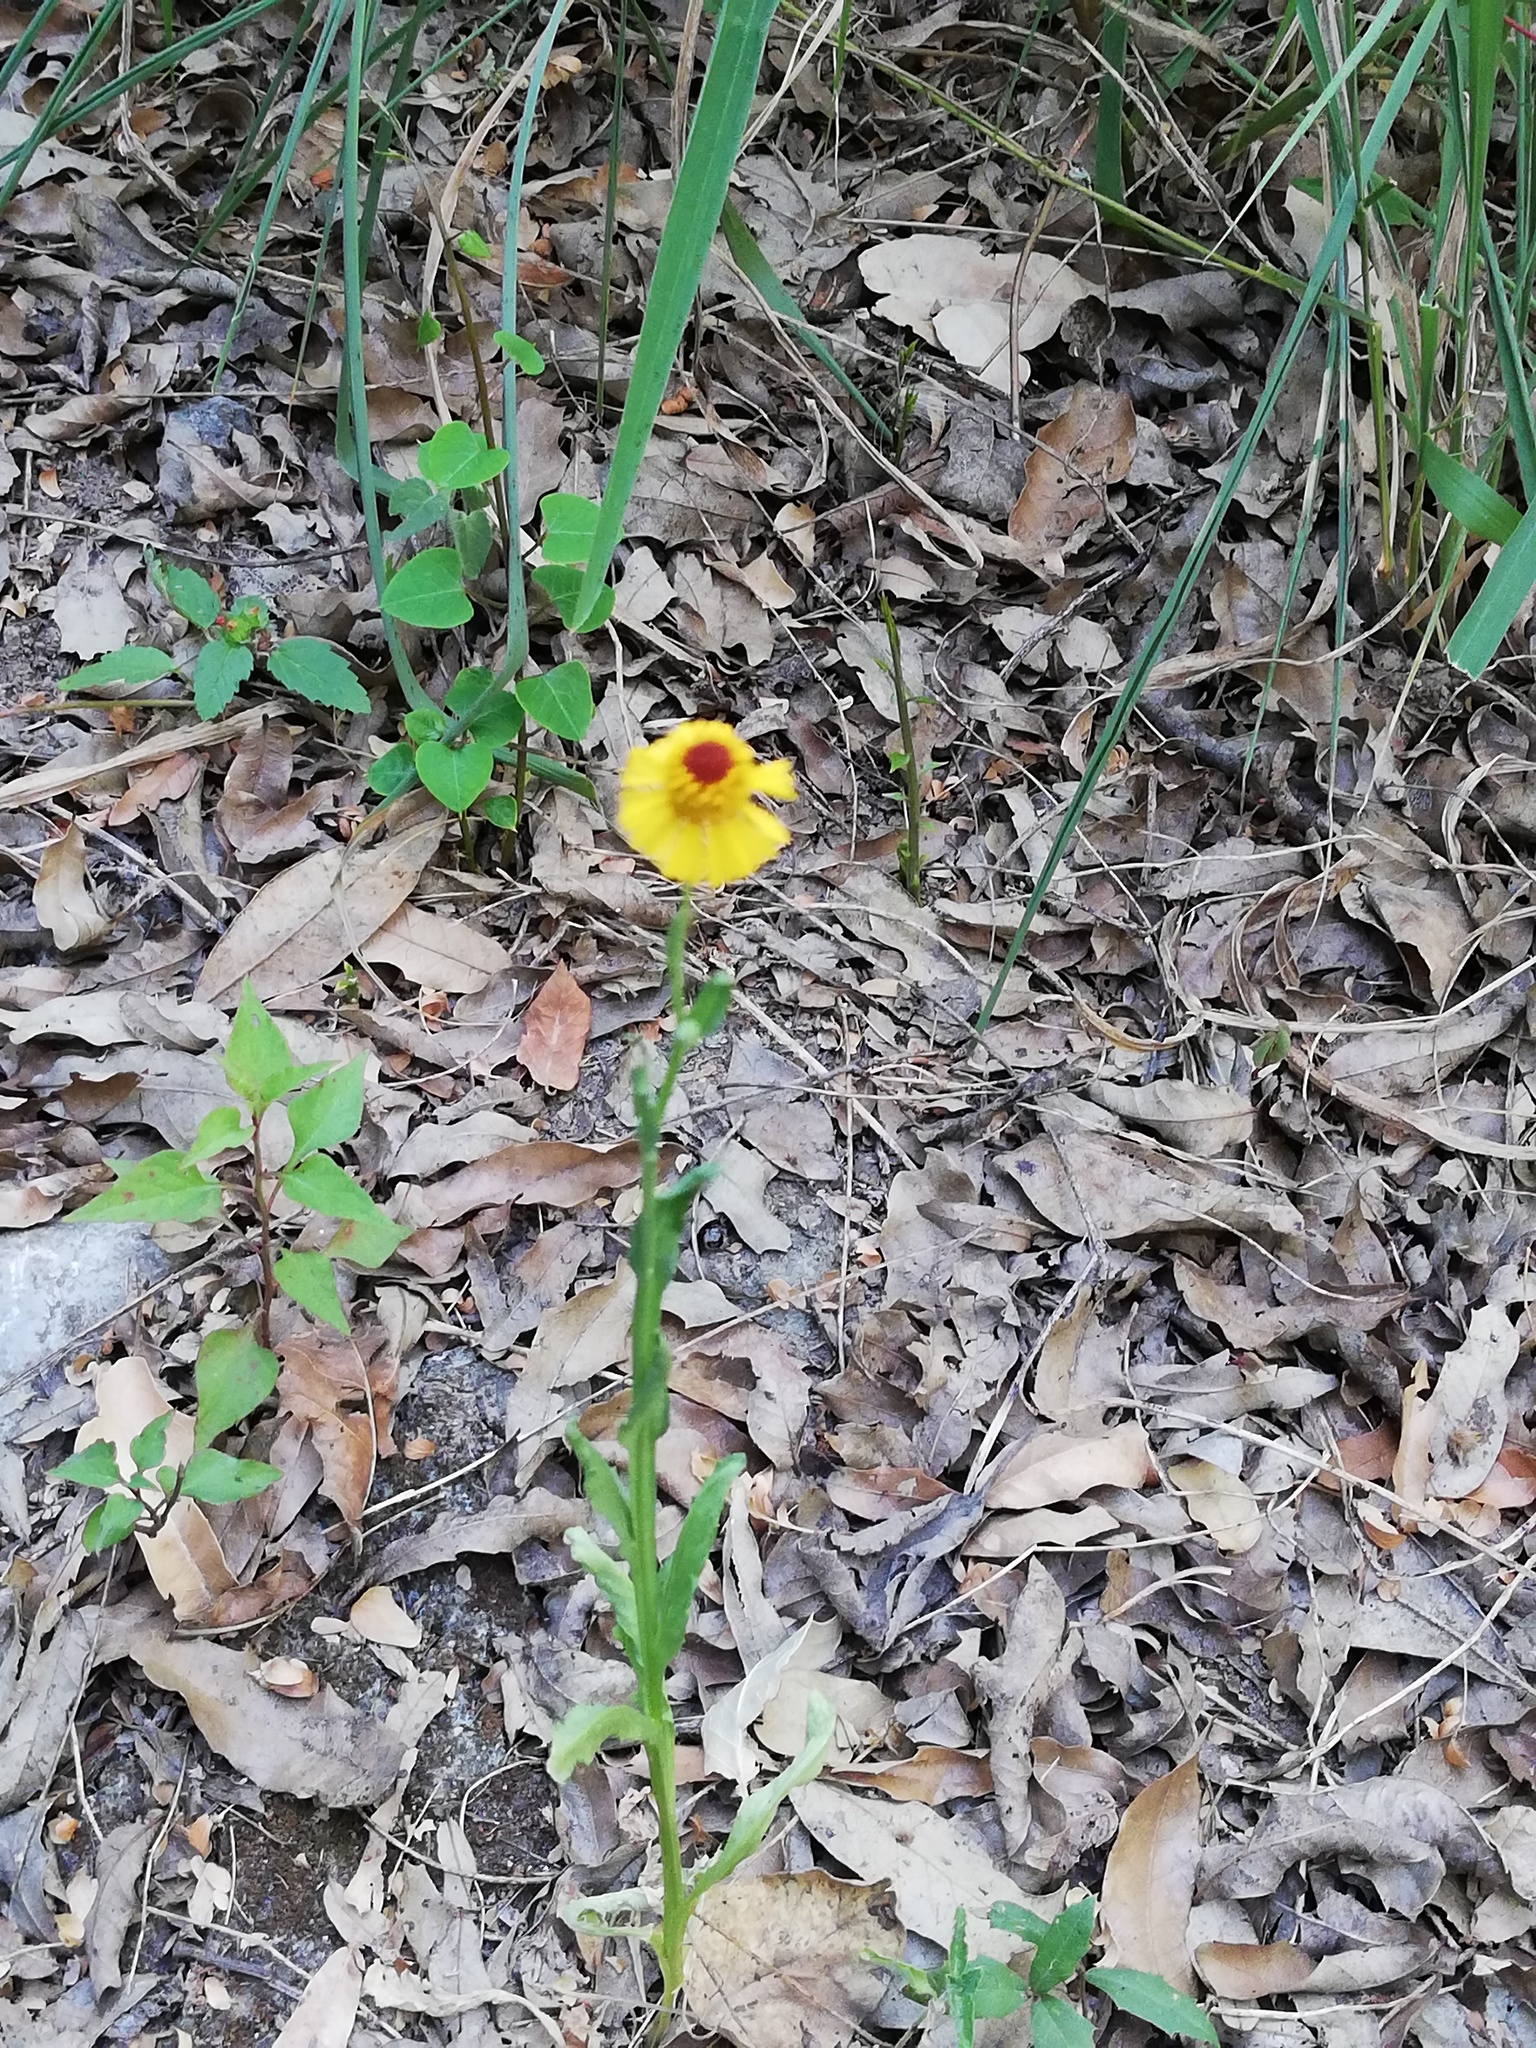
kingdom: Plantae
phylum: Tracheophyta
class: Magnoliopsida
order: Asterales
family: Asteraceae
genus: Helenium
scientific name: Helenium amphibolum
